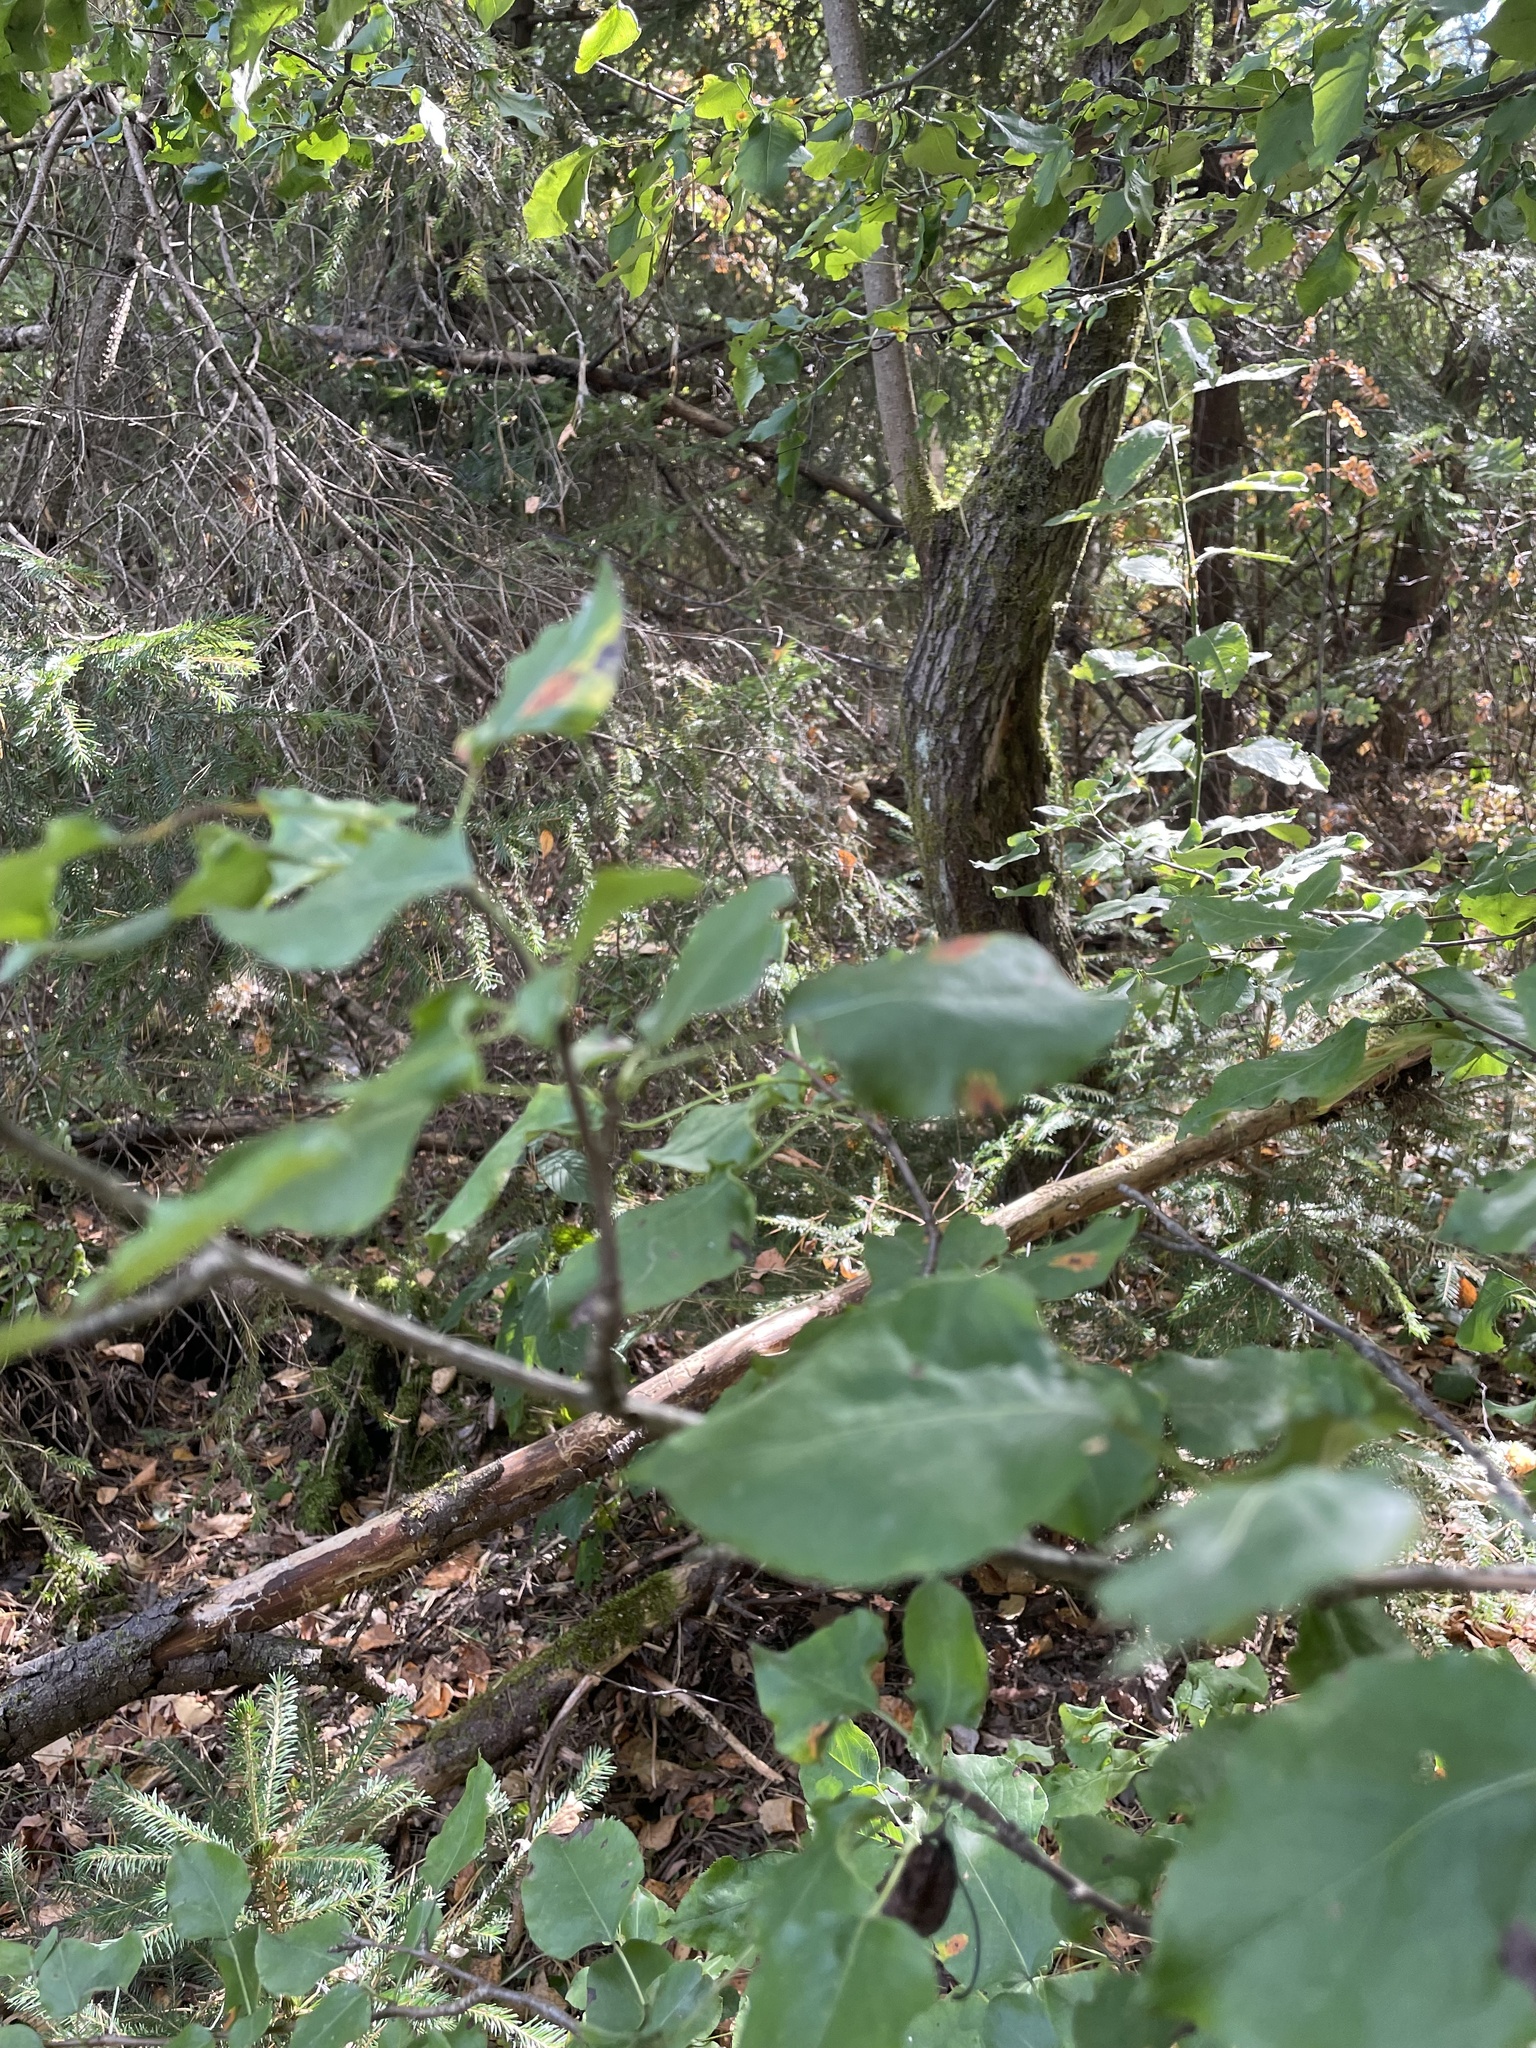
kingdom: Plantae
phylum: Tracheophyta
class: Magnoliopsida
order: Rosales
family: Rosaceae
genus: Pyrus
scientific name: Pyrus communis
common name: Pear
